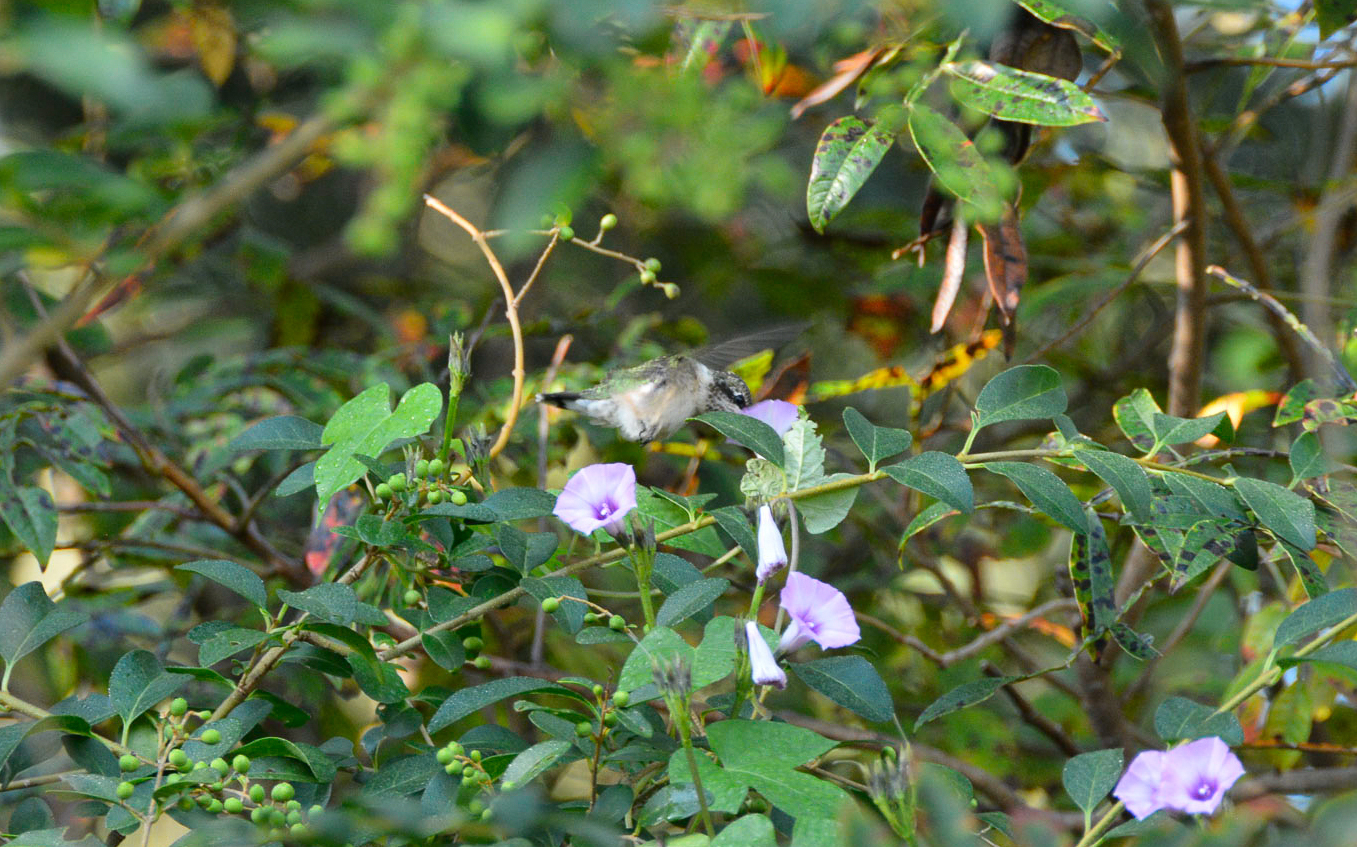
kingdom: Animalia
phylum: Chordata
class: Aves
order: Apodiformes
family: Trochilidae
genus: Archilochus
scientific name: Archilochus colubris
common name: Ruby-throated hummingbird
